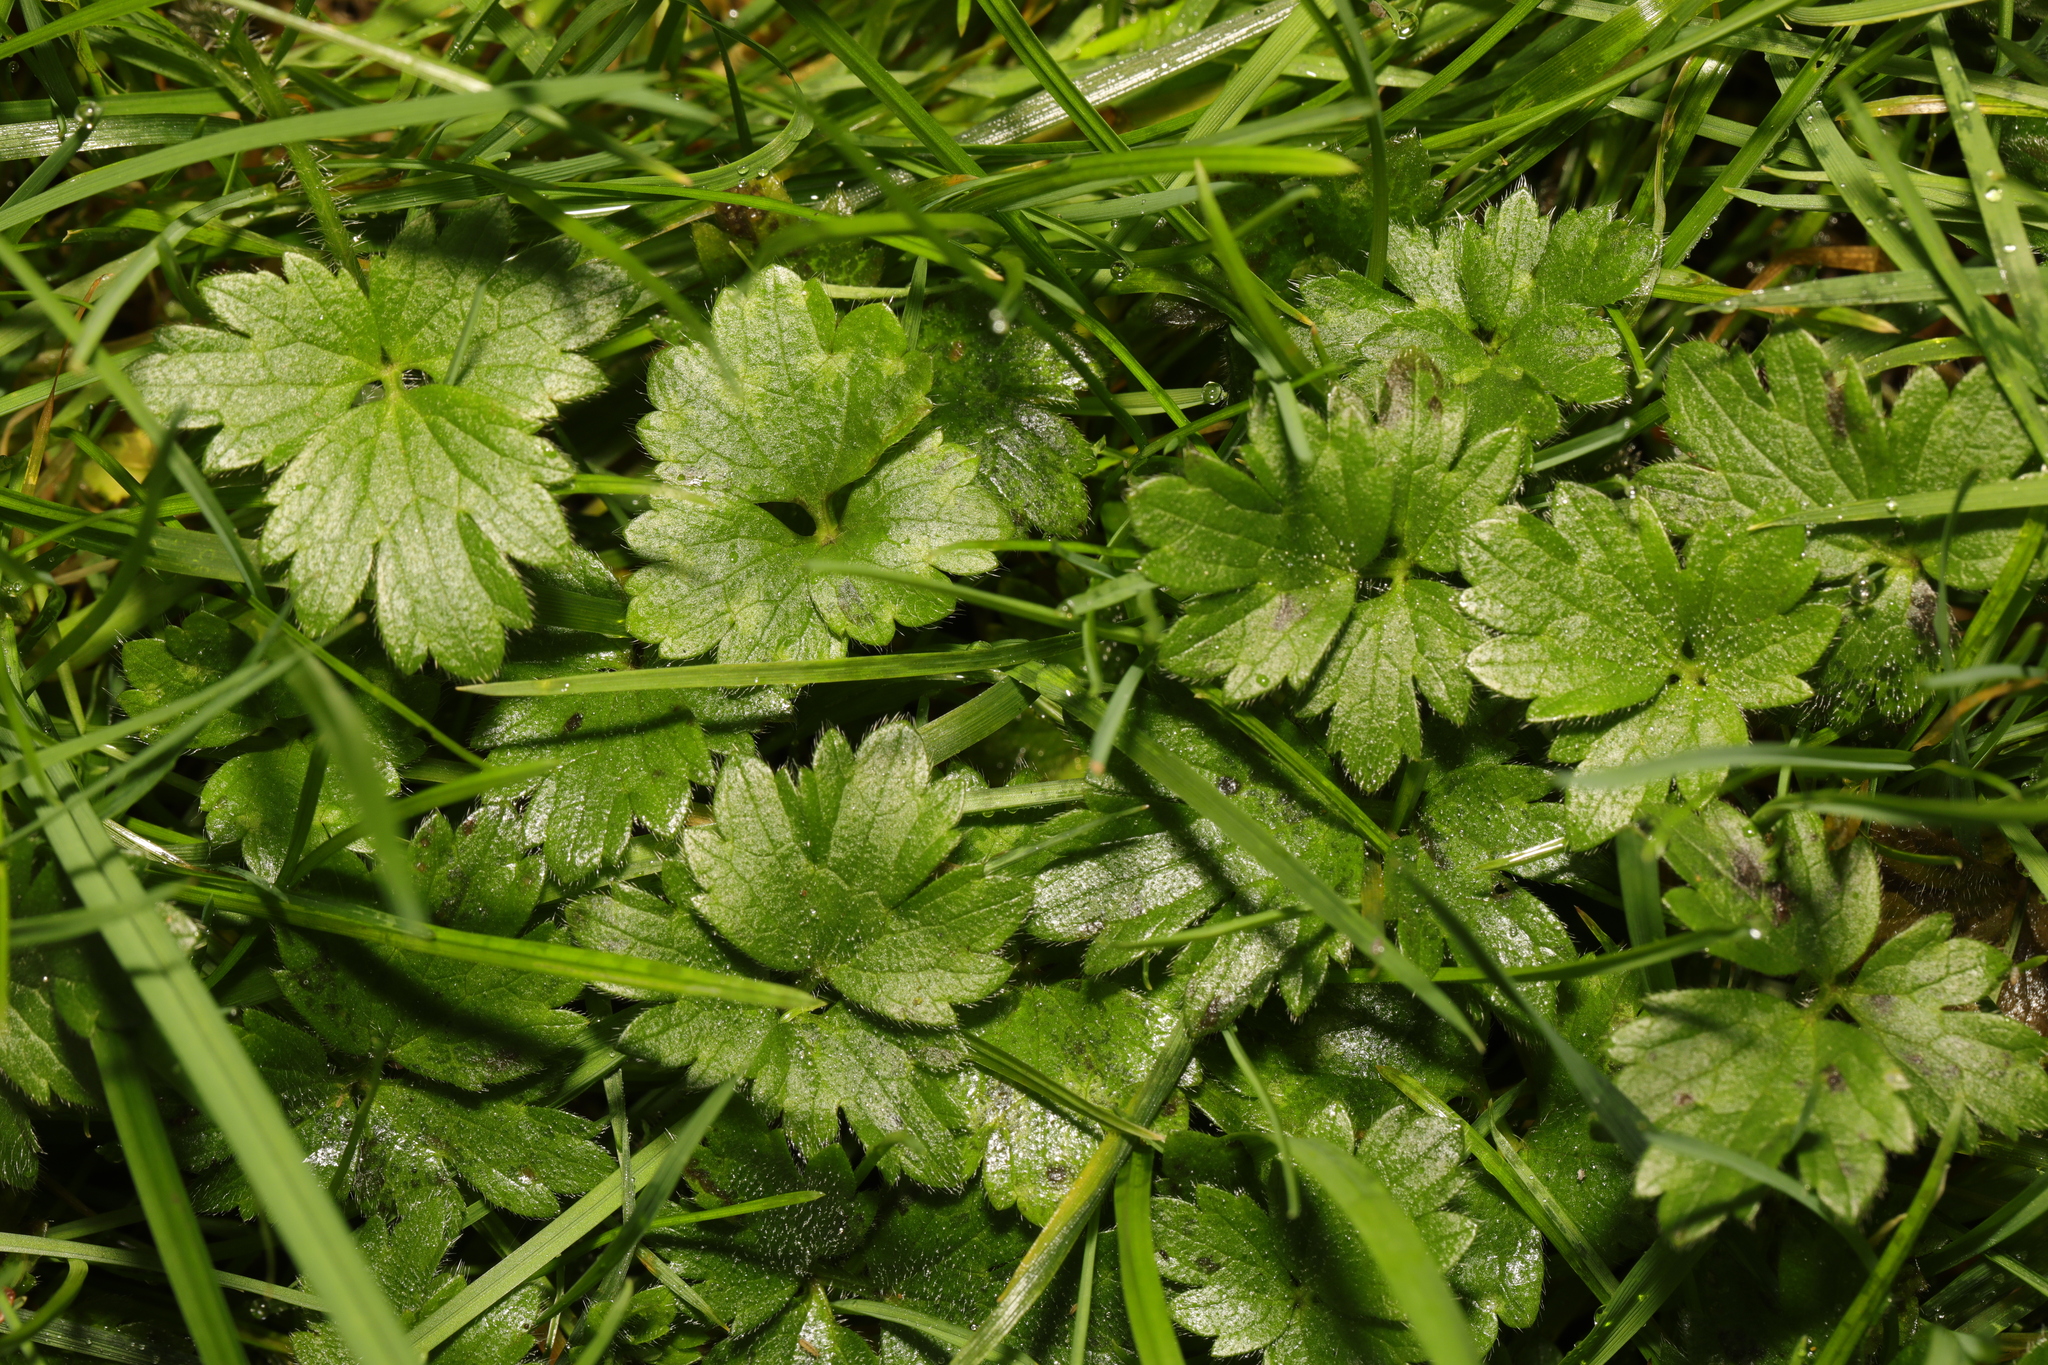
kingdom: Plantae
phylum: Tracheophyta
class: Magnoliopsida
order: Ranunculales
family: Ranunculaceae
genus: Ranunculus
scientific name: Ranunculus repens
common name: Creeping buttercup
